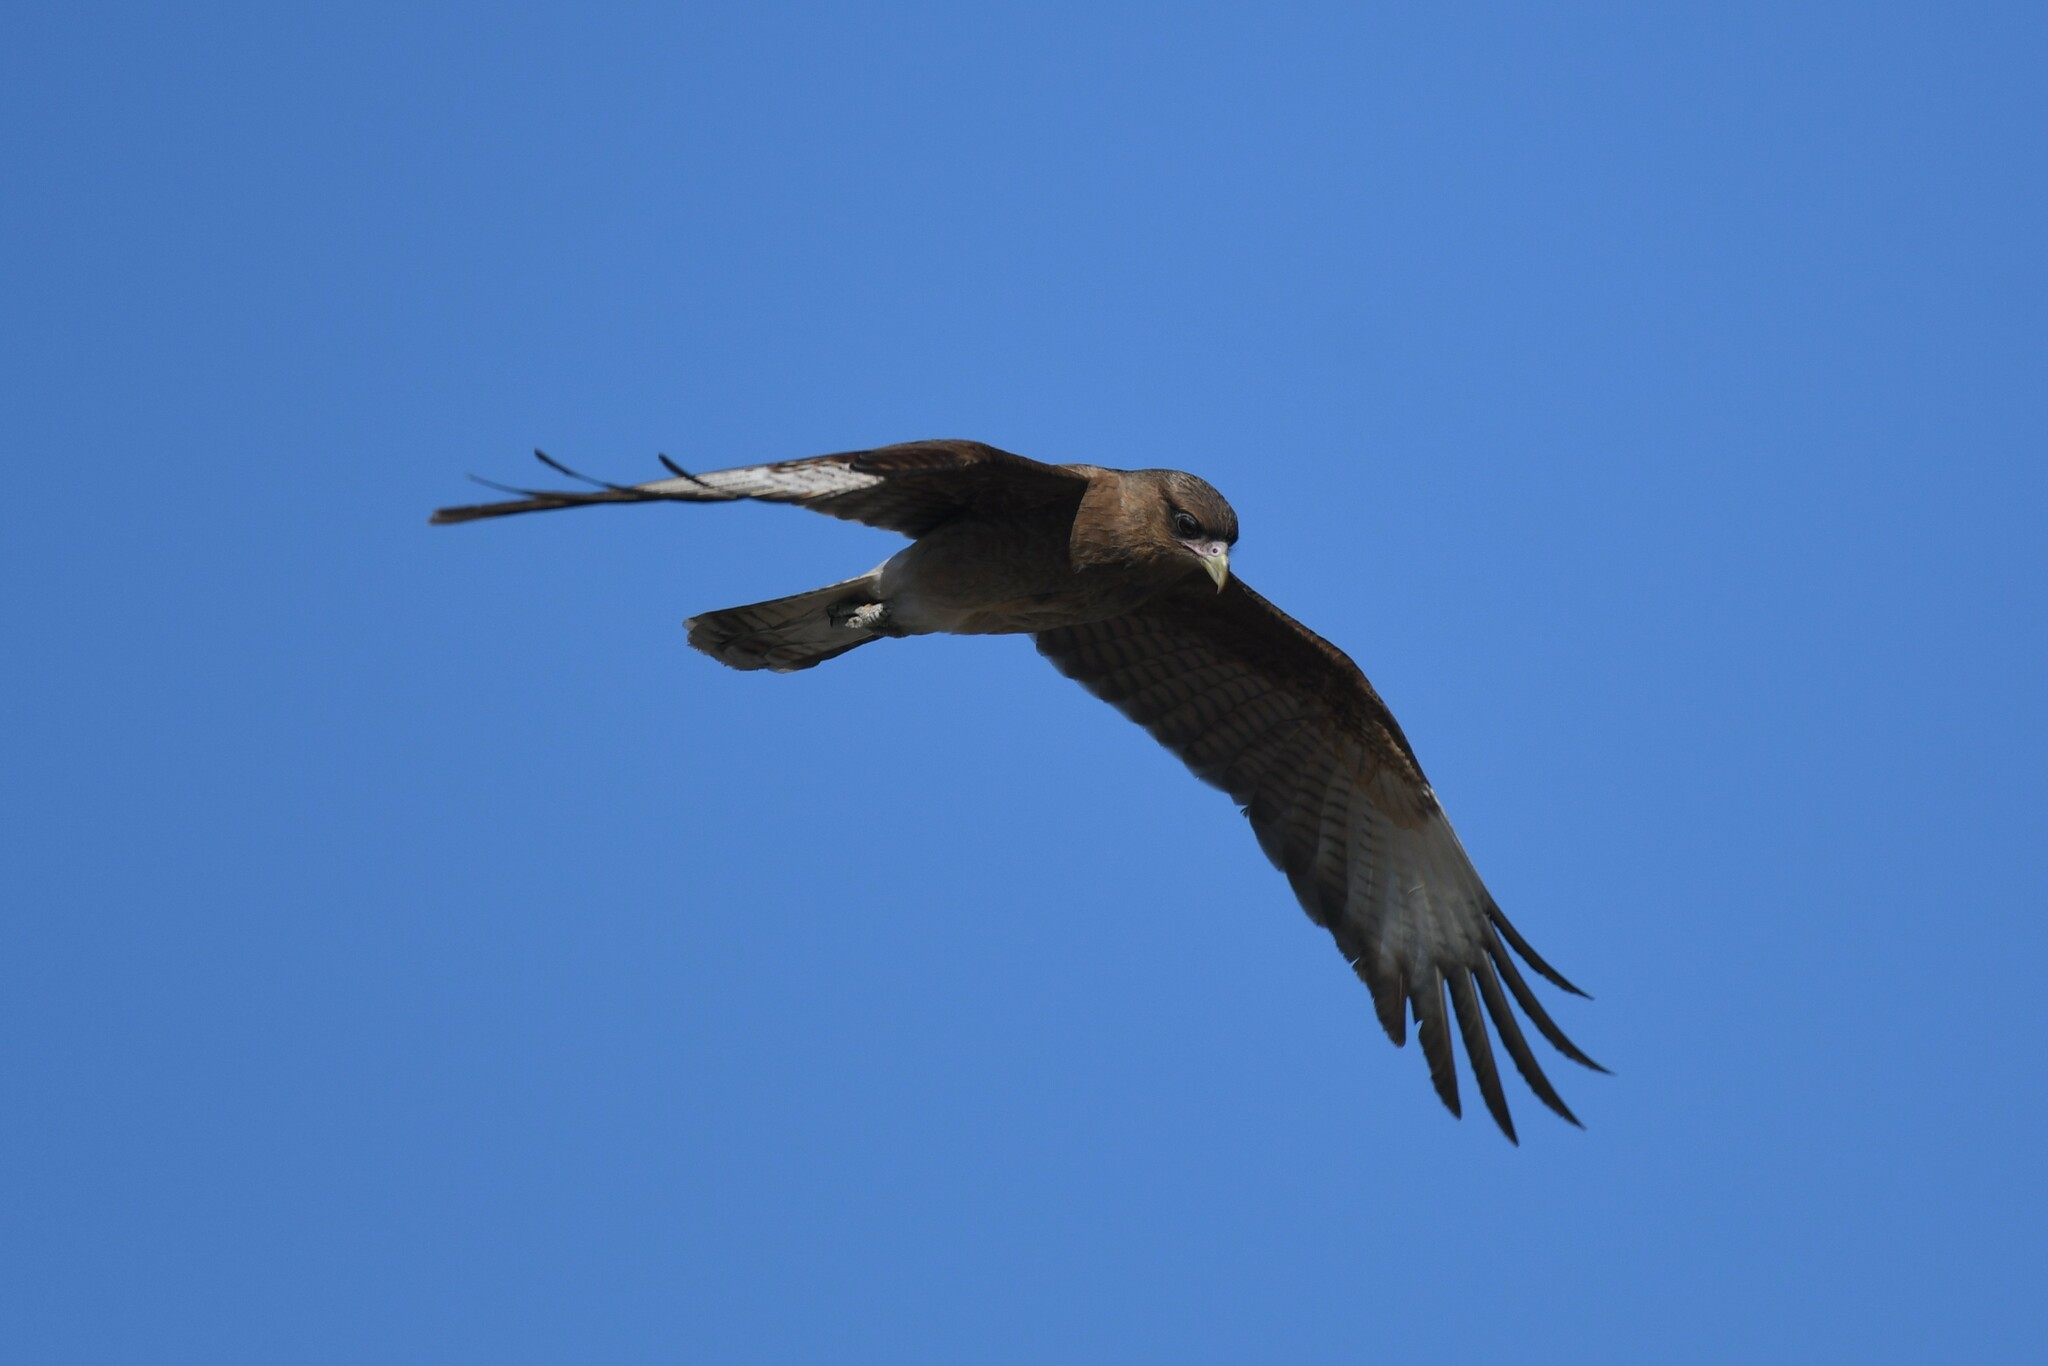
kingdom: Animalia
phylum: Chordata
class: Aves
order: Falconiformes
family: Falconidae
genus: Daptrius
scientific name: Daptrius
